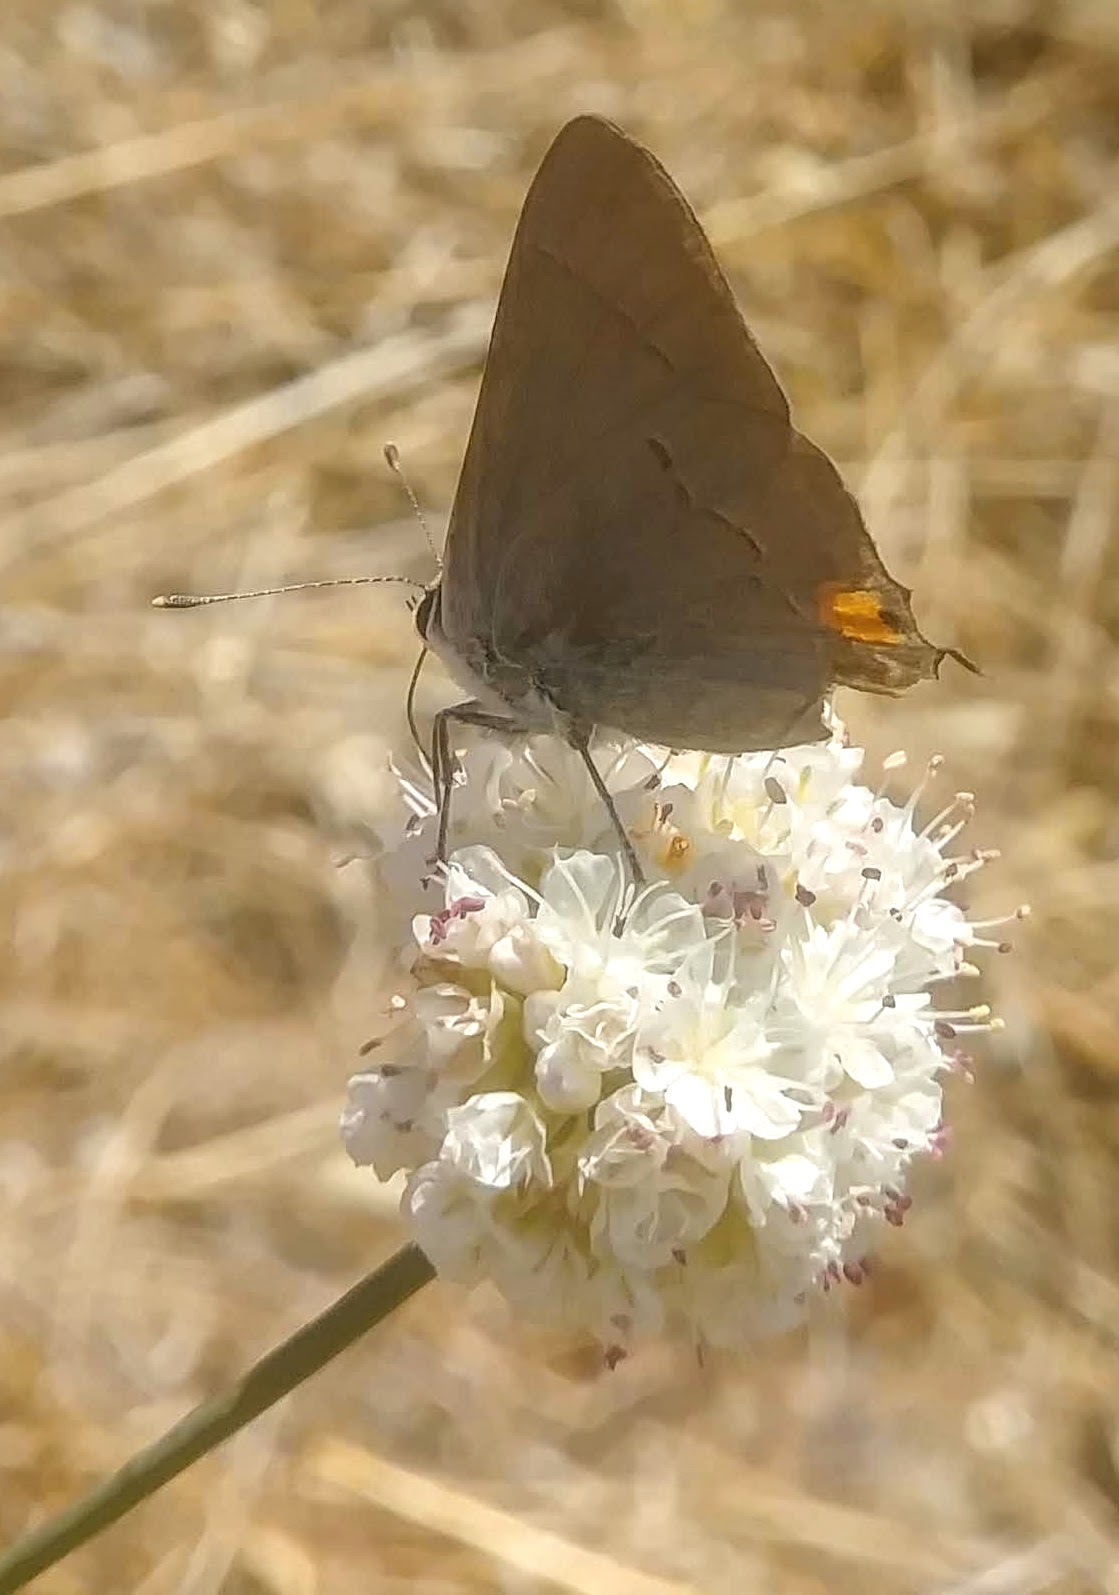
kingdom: Animalia
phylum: Arthropoda
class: Insecta
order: Lepidoptera
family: Lycaenidae
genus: Strymon
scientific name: Strymon melinus
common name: Gray hairstreak
